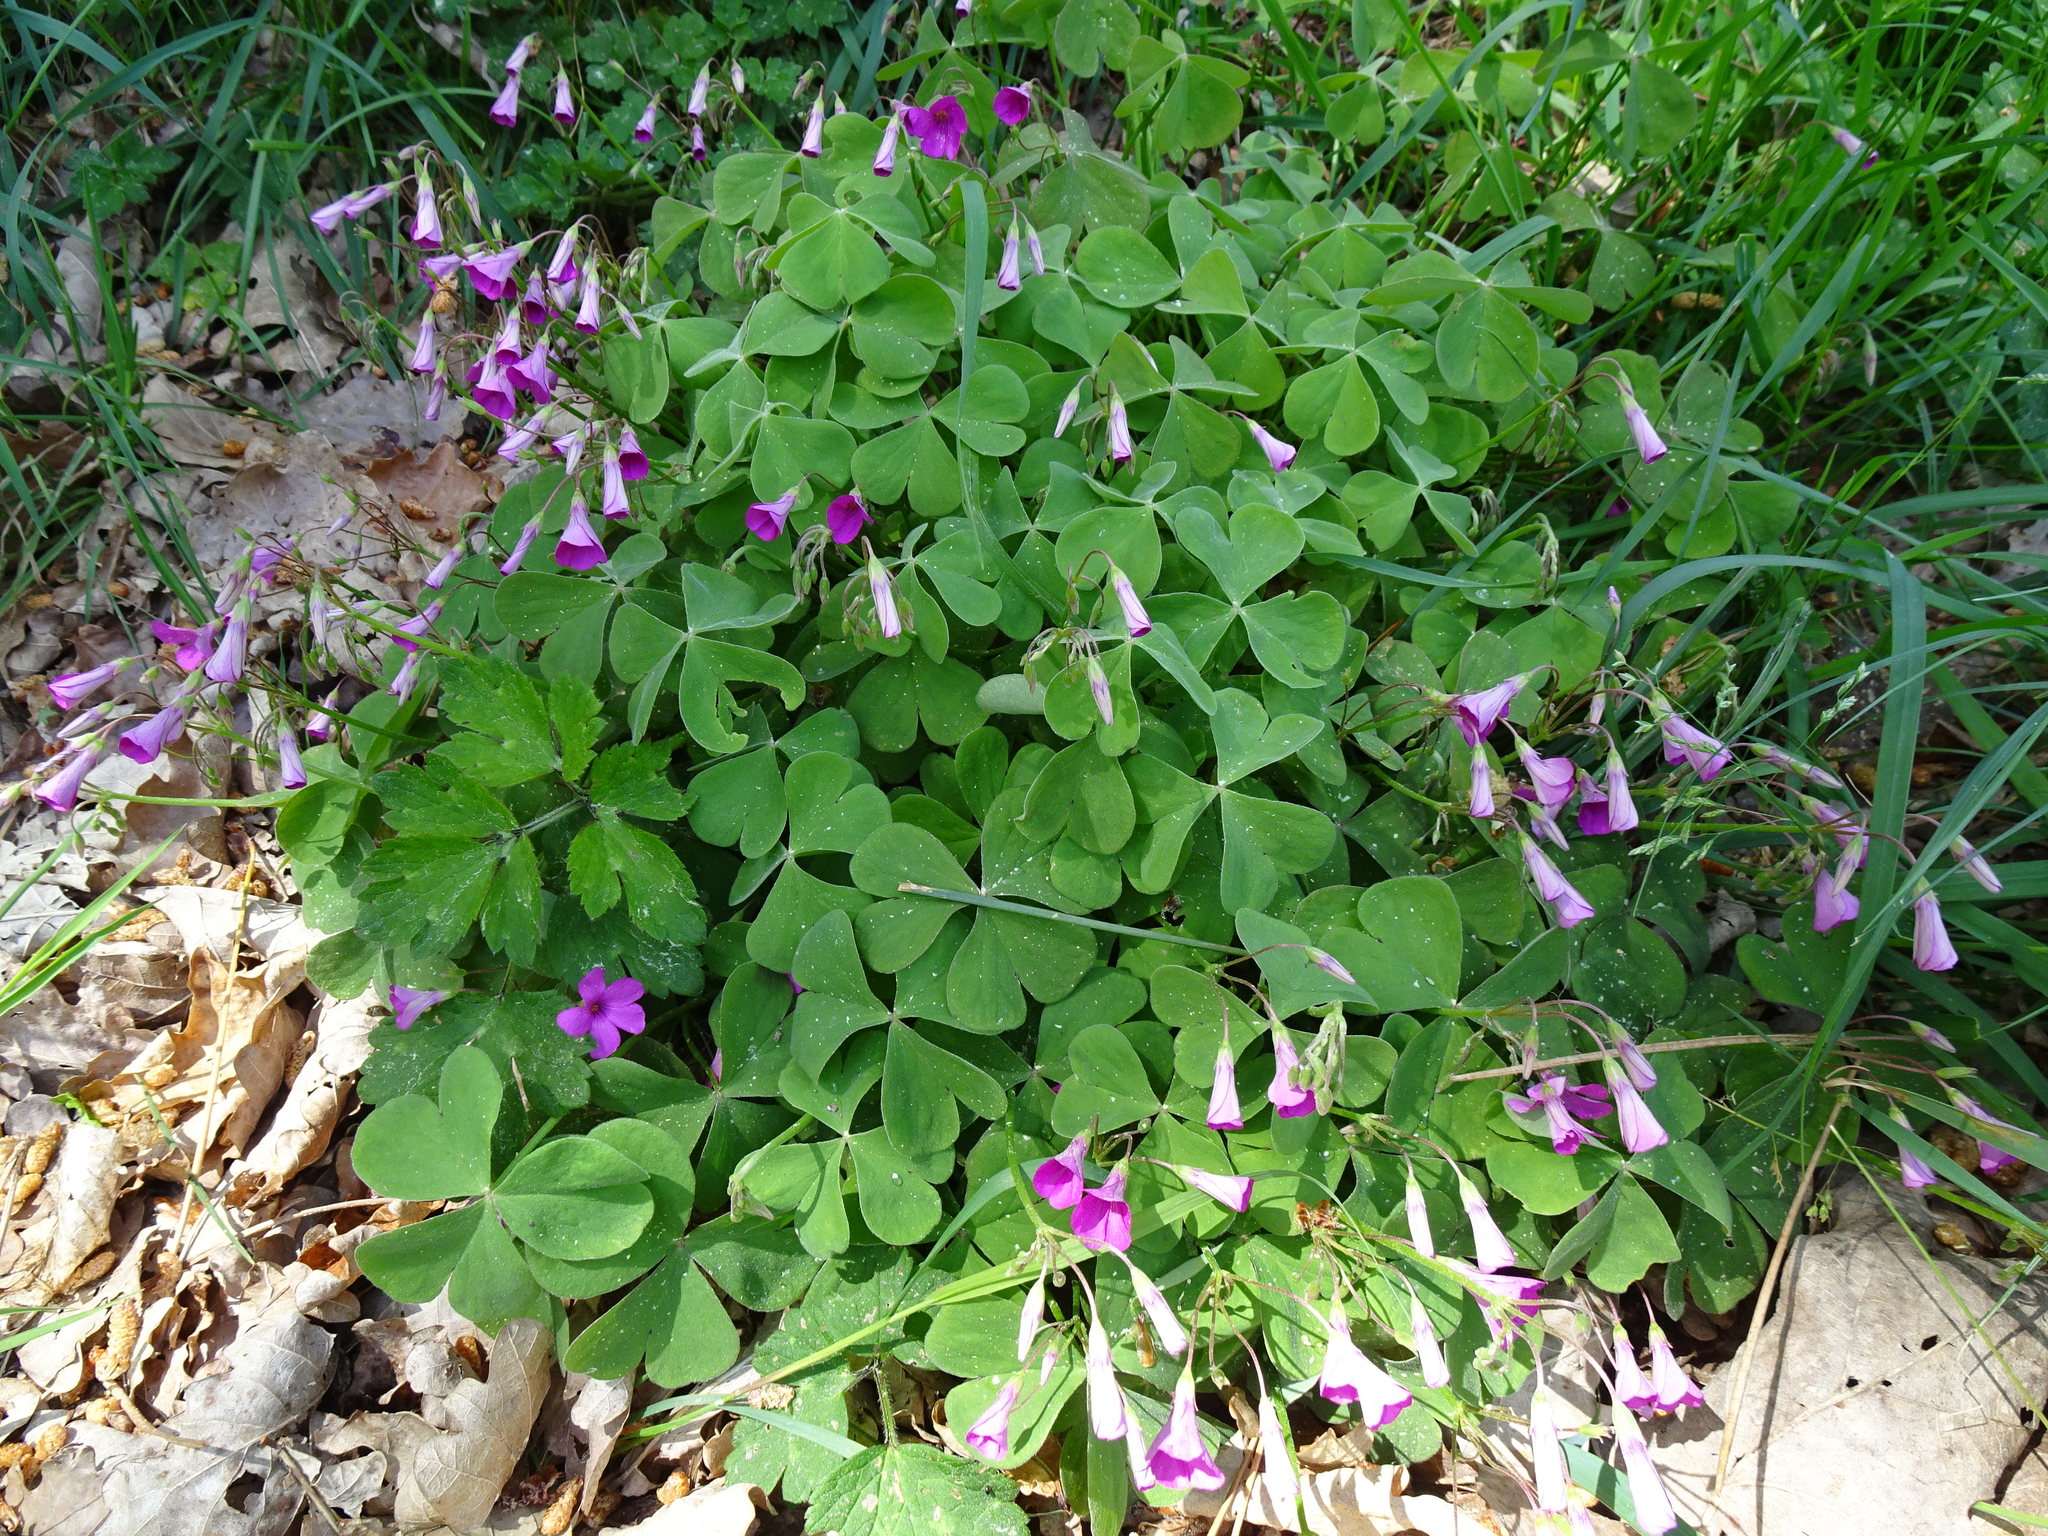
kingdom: Plantae
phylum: Tracheophyta
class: Magnoliopsida
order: Oxalidales
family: Oxalidaceae
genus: Oxalis
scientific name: Oxalis articulata
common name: Pink-sorrel
